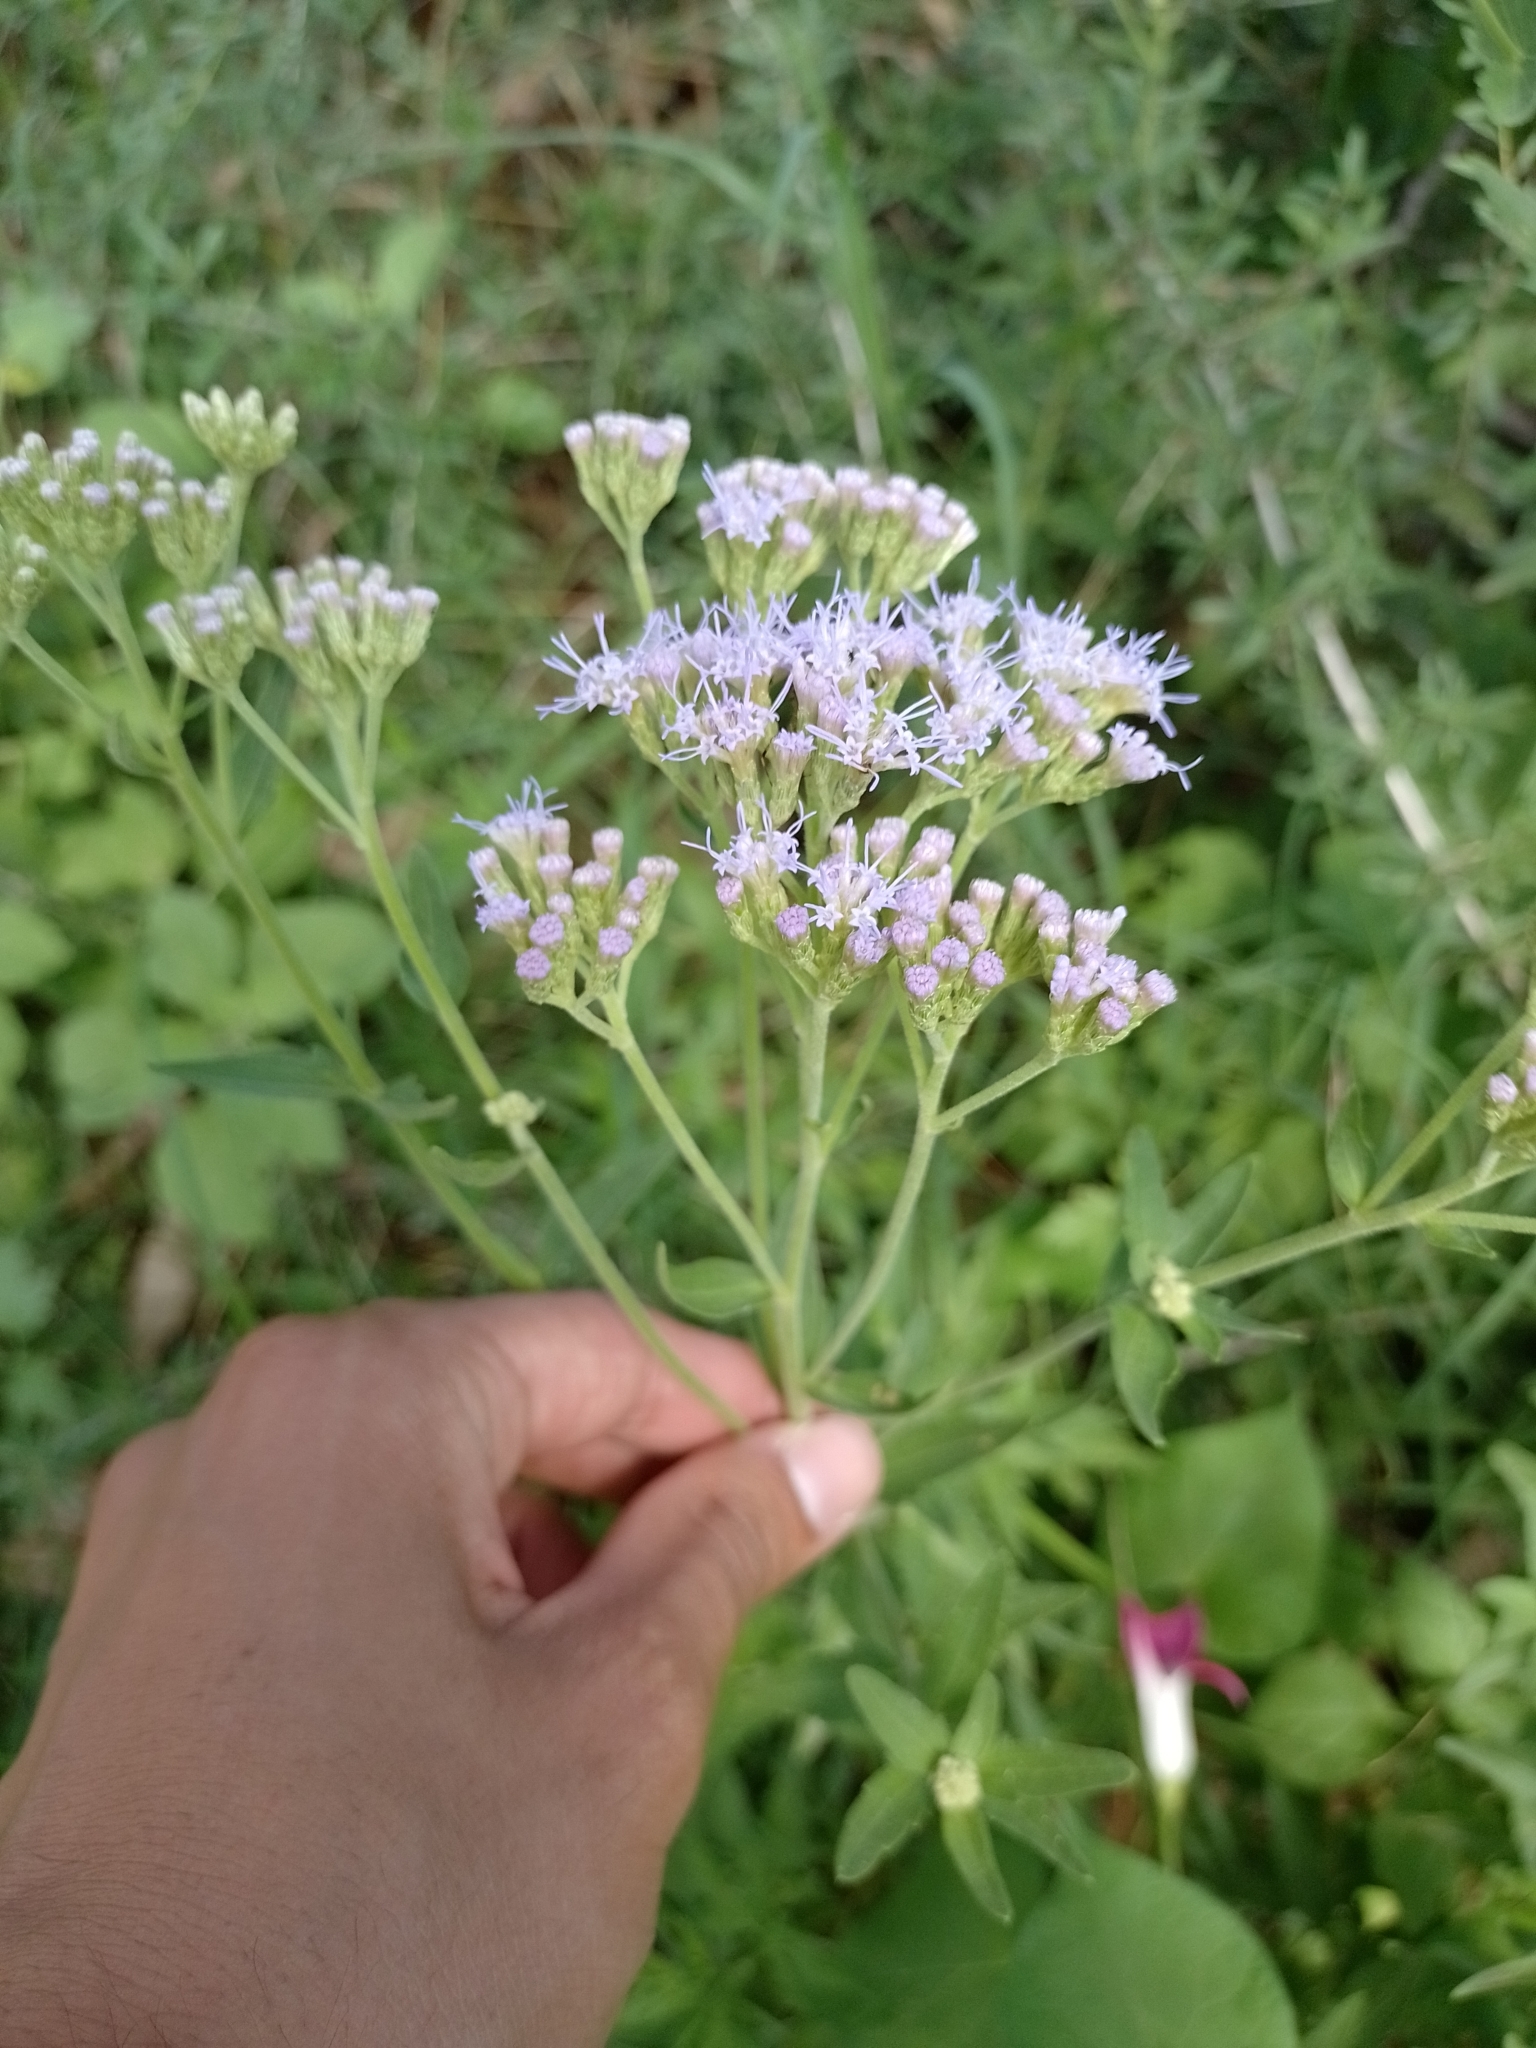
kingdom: Plantae
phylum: Tracheophyta
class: Magnoliopsida
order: Asterales
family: Asteraceae
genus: Chromolaena
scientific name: Chromolaena ivifolia
